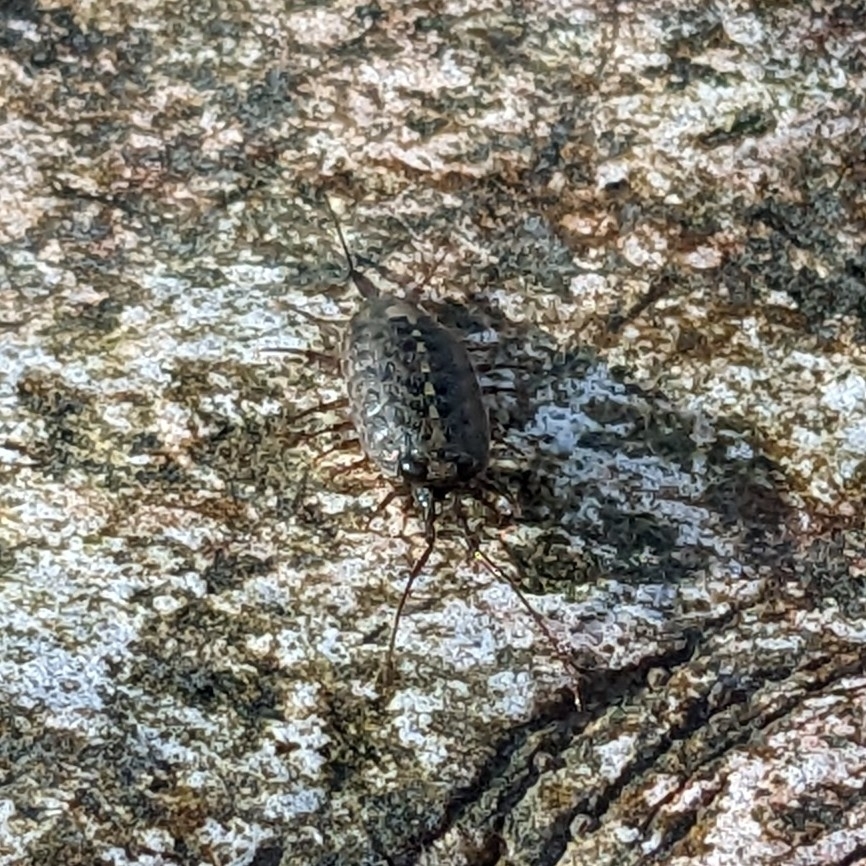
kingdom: Animalia
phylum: Arthropoda
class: Malacostraca
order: Isopoda
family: Ligiidae
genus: Ligia
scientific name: Ligia occidentalis
